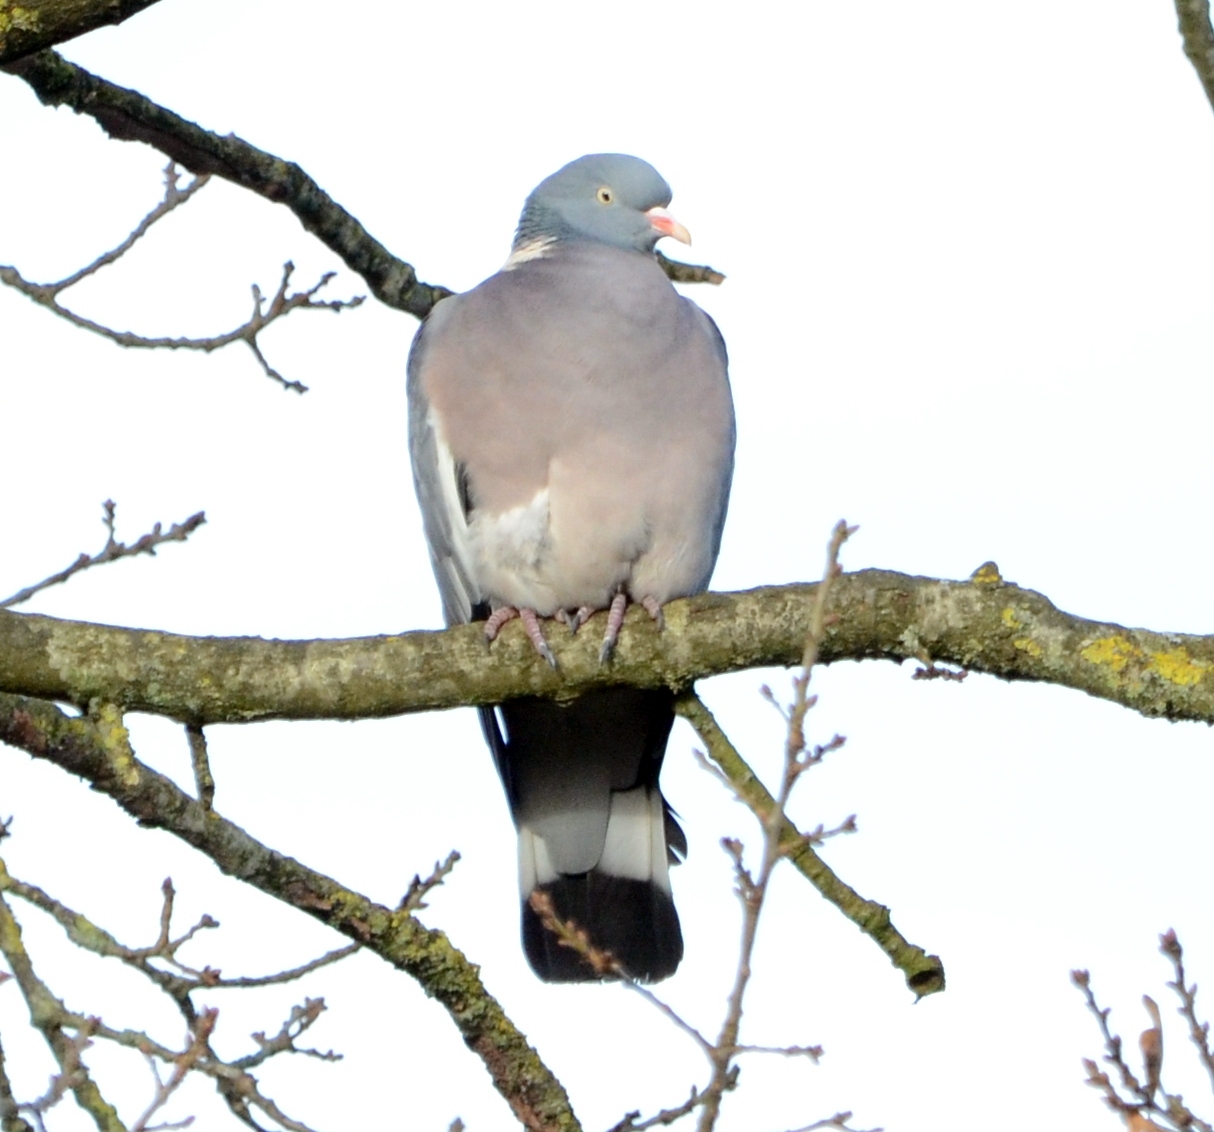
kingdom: Animalia
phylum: Chordata
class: Aves
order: Columbiformes
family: Columbidae
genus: Columba
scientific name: Columba palumbus
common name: Common wood pigeon
